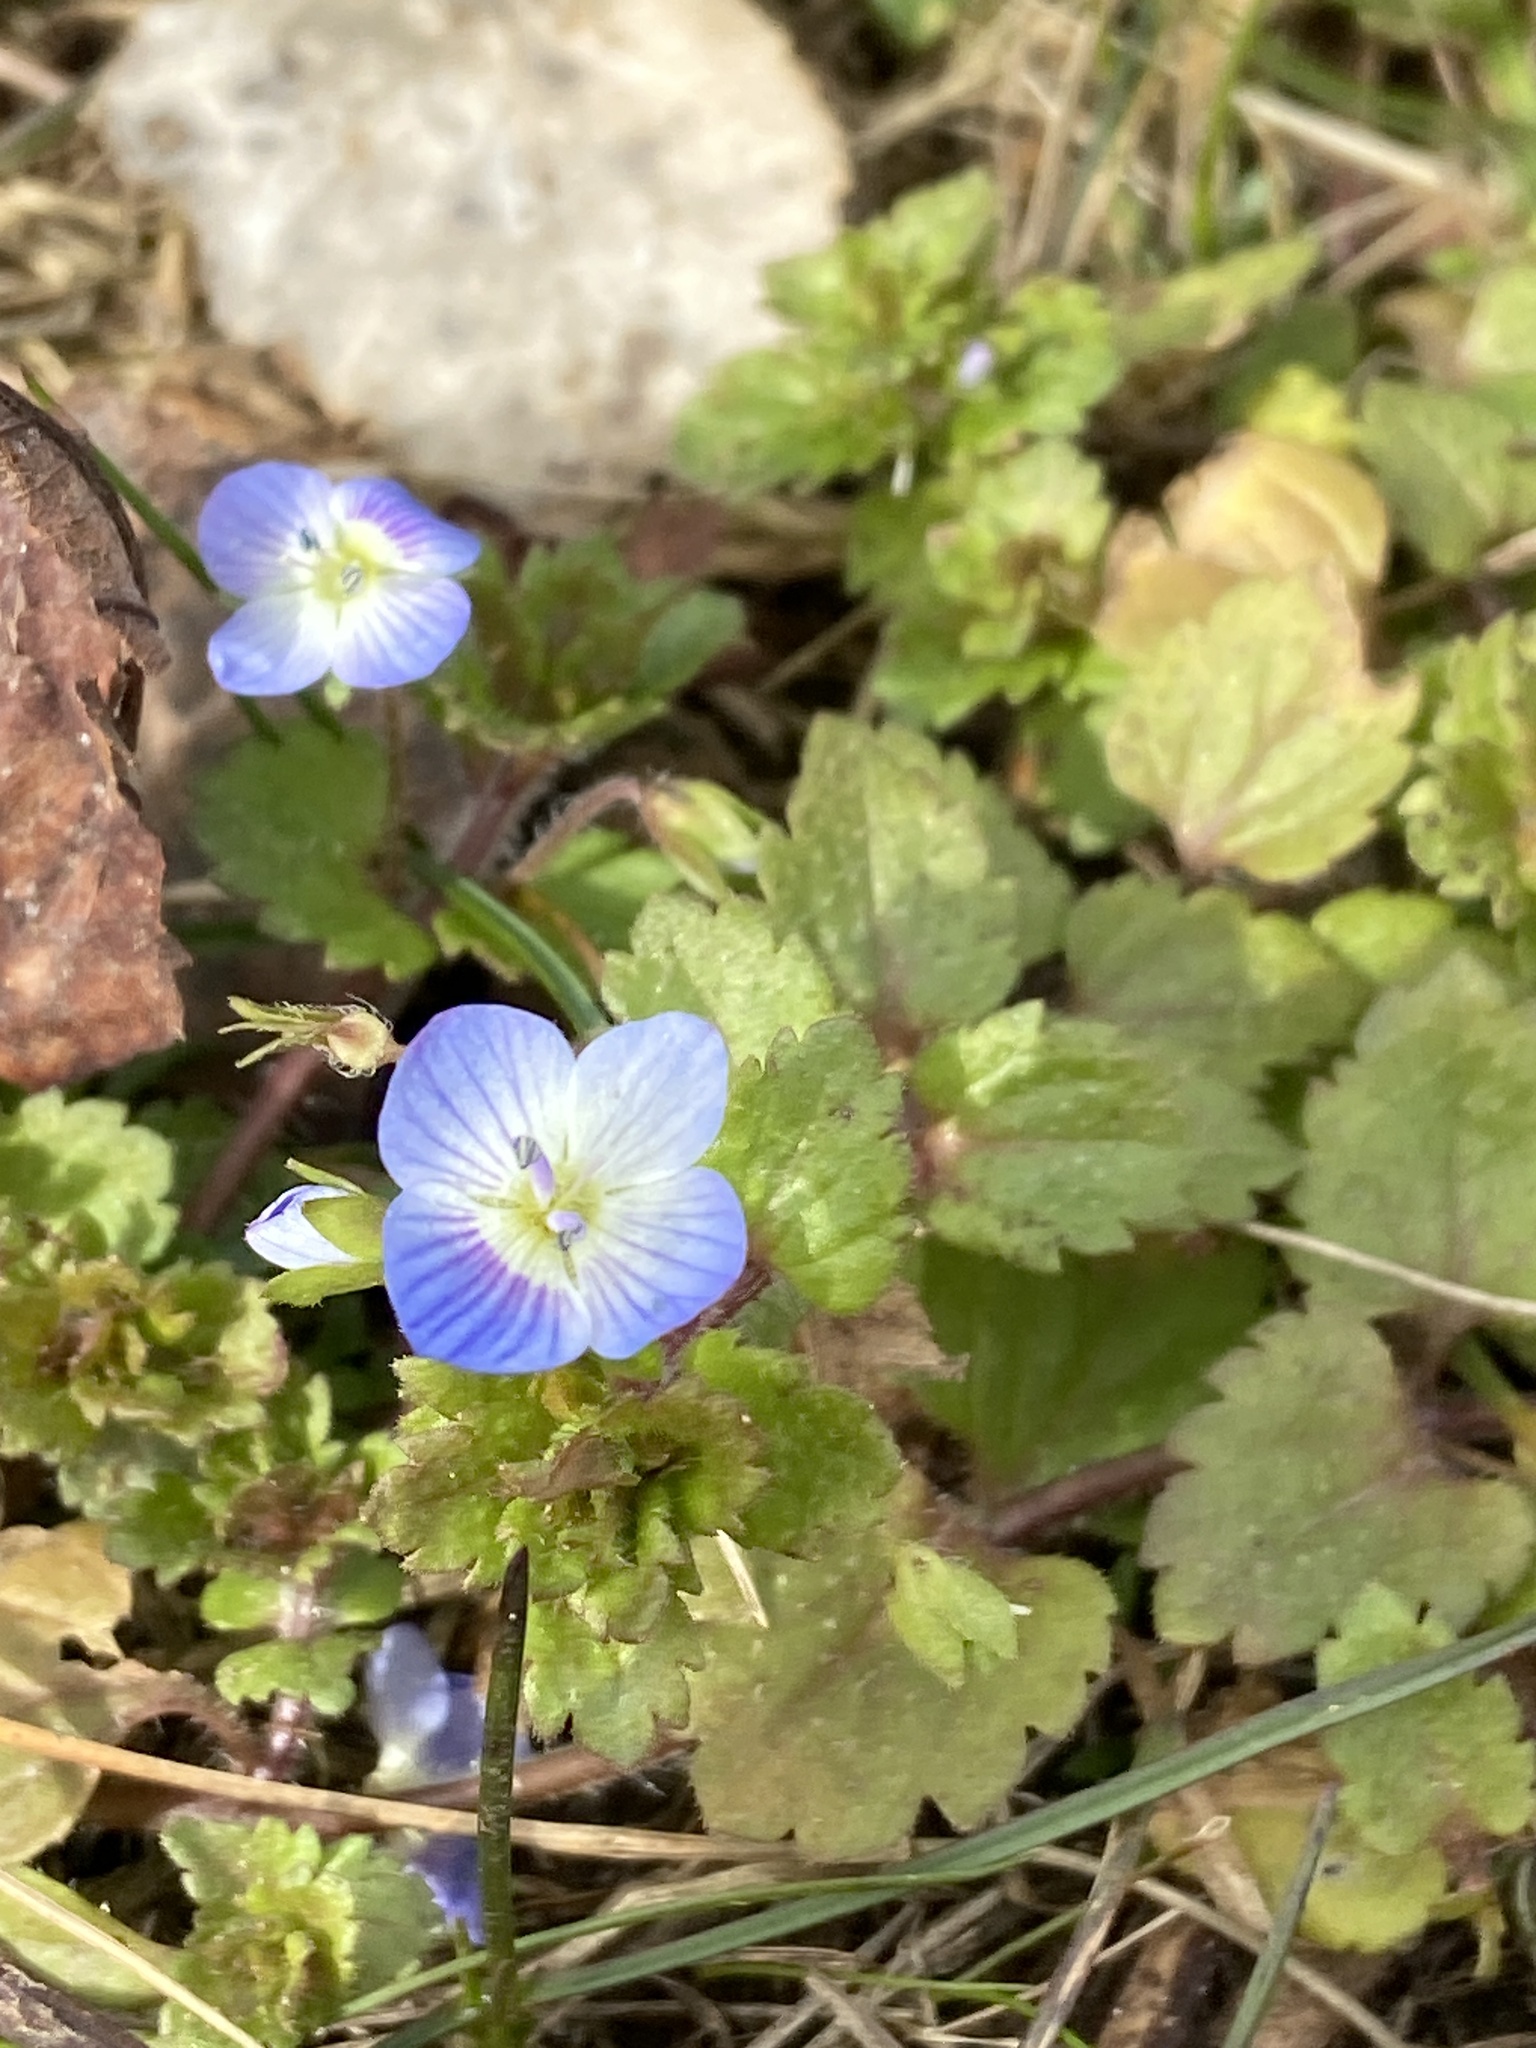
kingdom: Plantae
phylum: Tracheophyta
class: Magnoliopsida
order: Lamiales
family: Plantaginaceae
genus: Veronica
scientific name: Veronica persica
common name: Common field-speedwell
